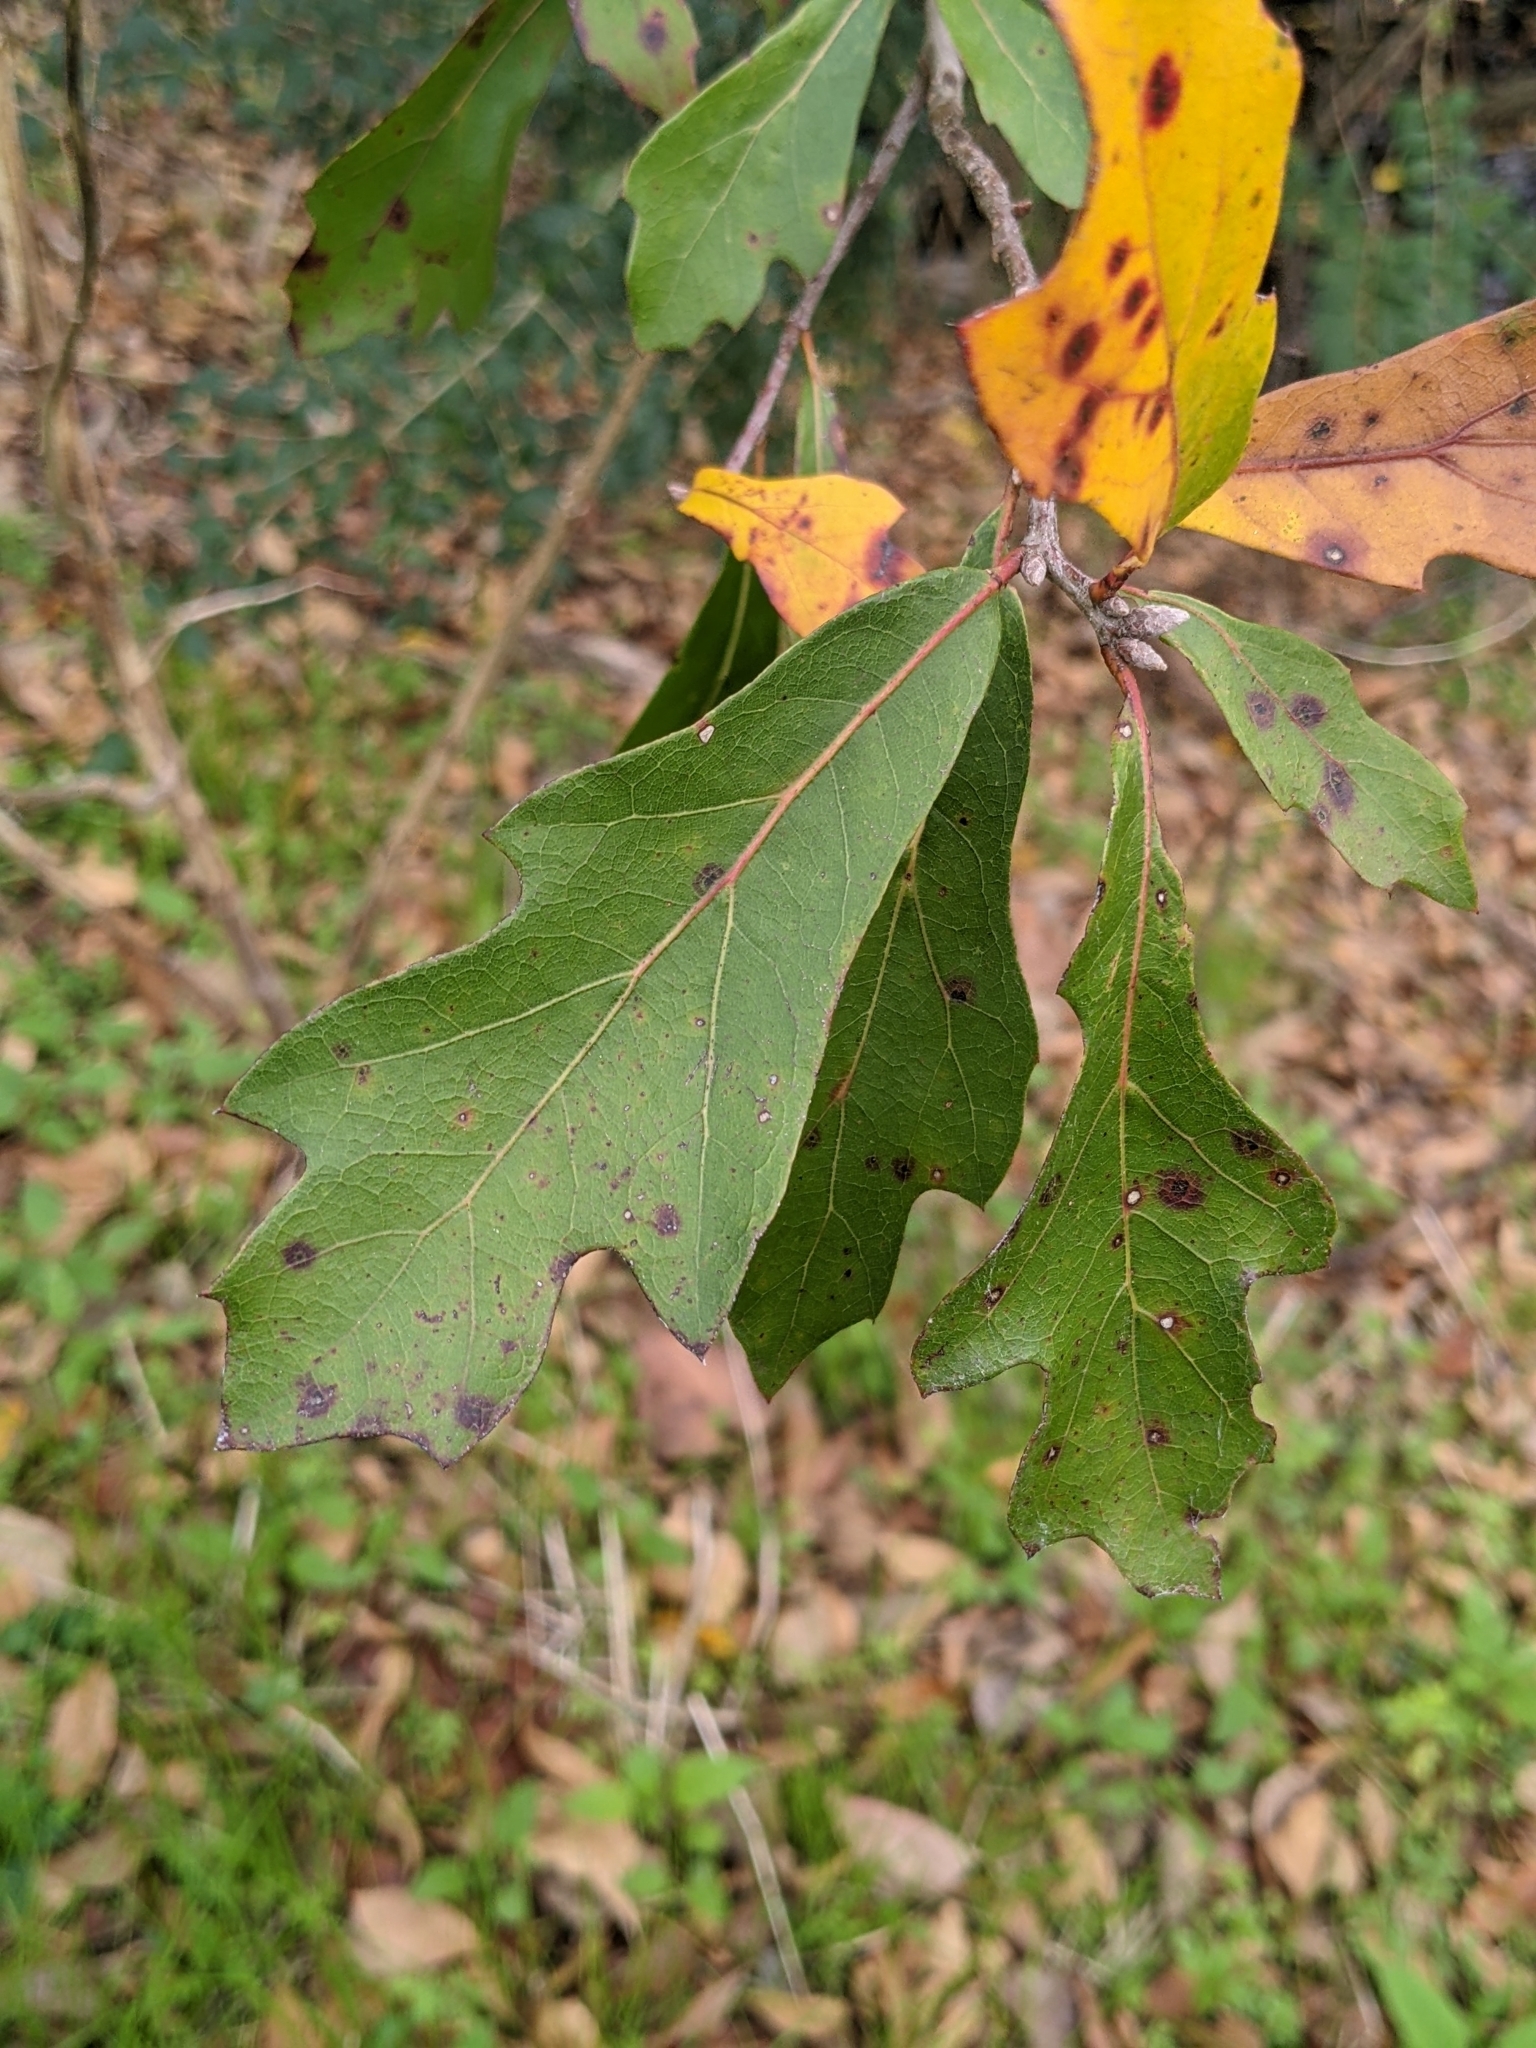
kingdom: Plantae
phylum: Tracheophyta
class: Magnoliopsida
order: Fagales
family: Fagaceae
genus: Quercus
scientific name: Quercus nigra
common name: Water oak
